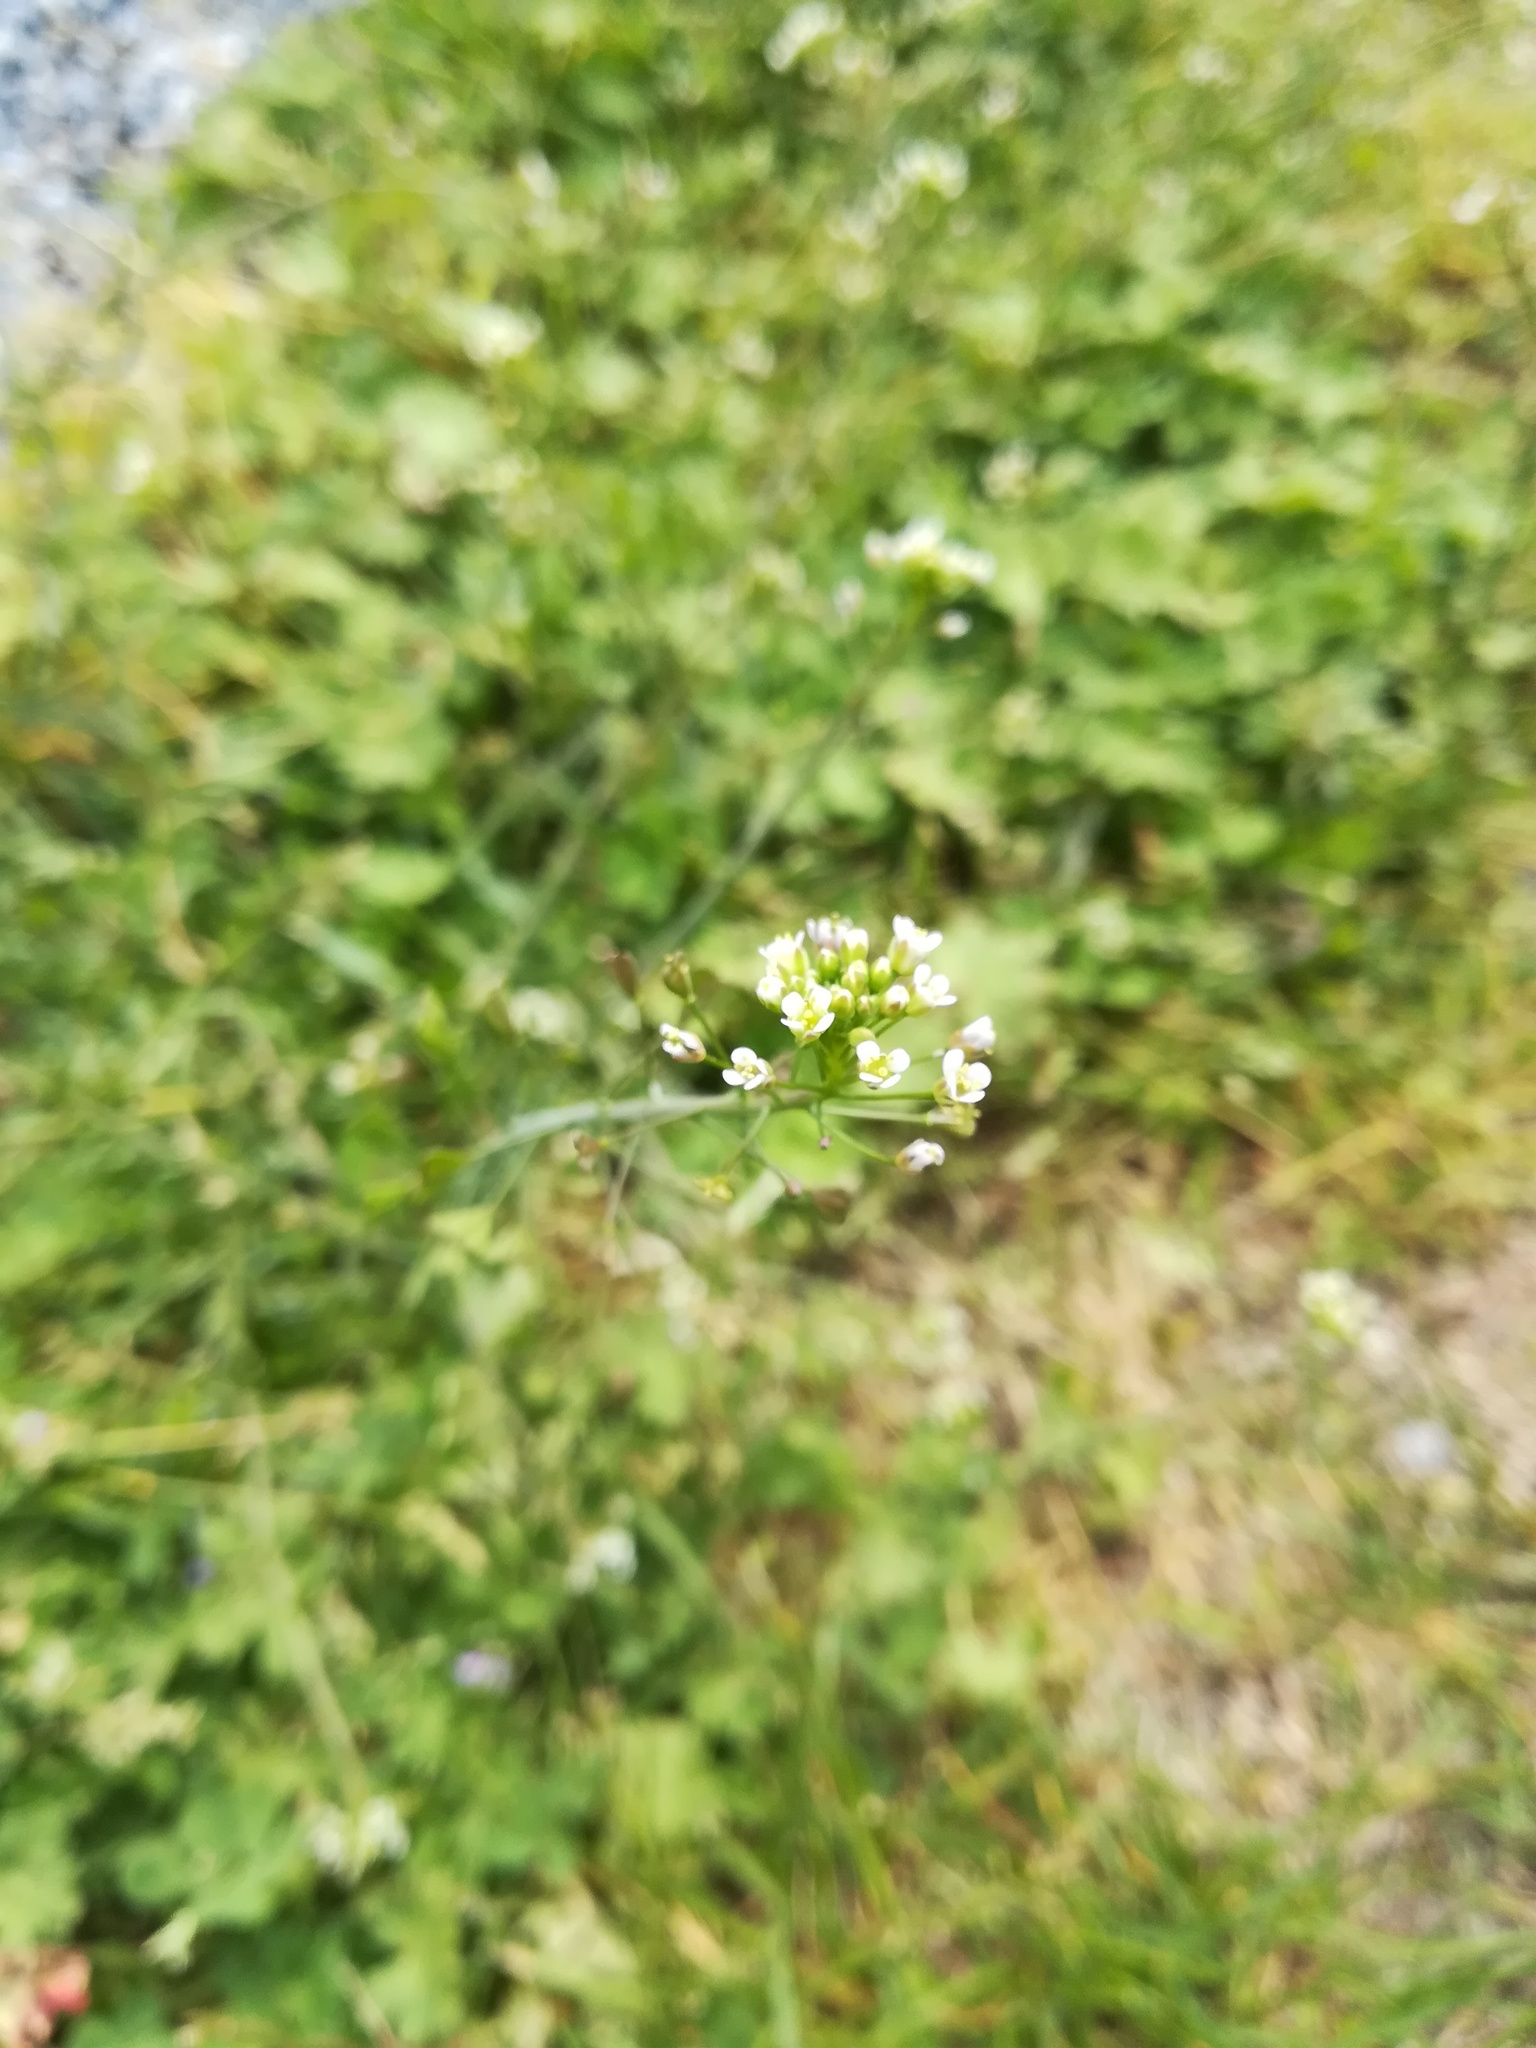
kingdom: Plantae
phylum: Tracheophyta
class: Magnoliopsida
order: Brassicales
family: Brassicaceae
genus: Capsella
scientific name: Capsella bursa-pastoris
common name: Shepherd's purse
